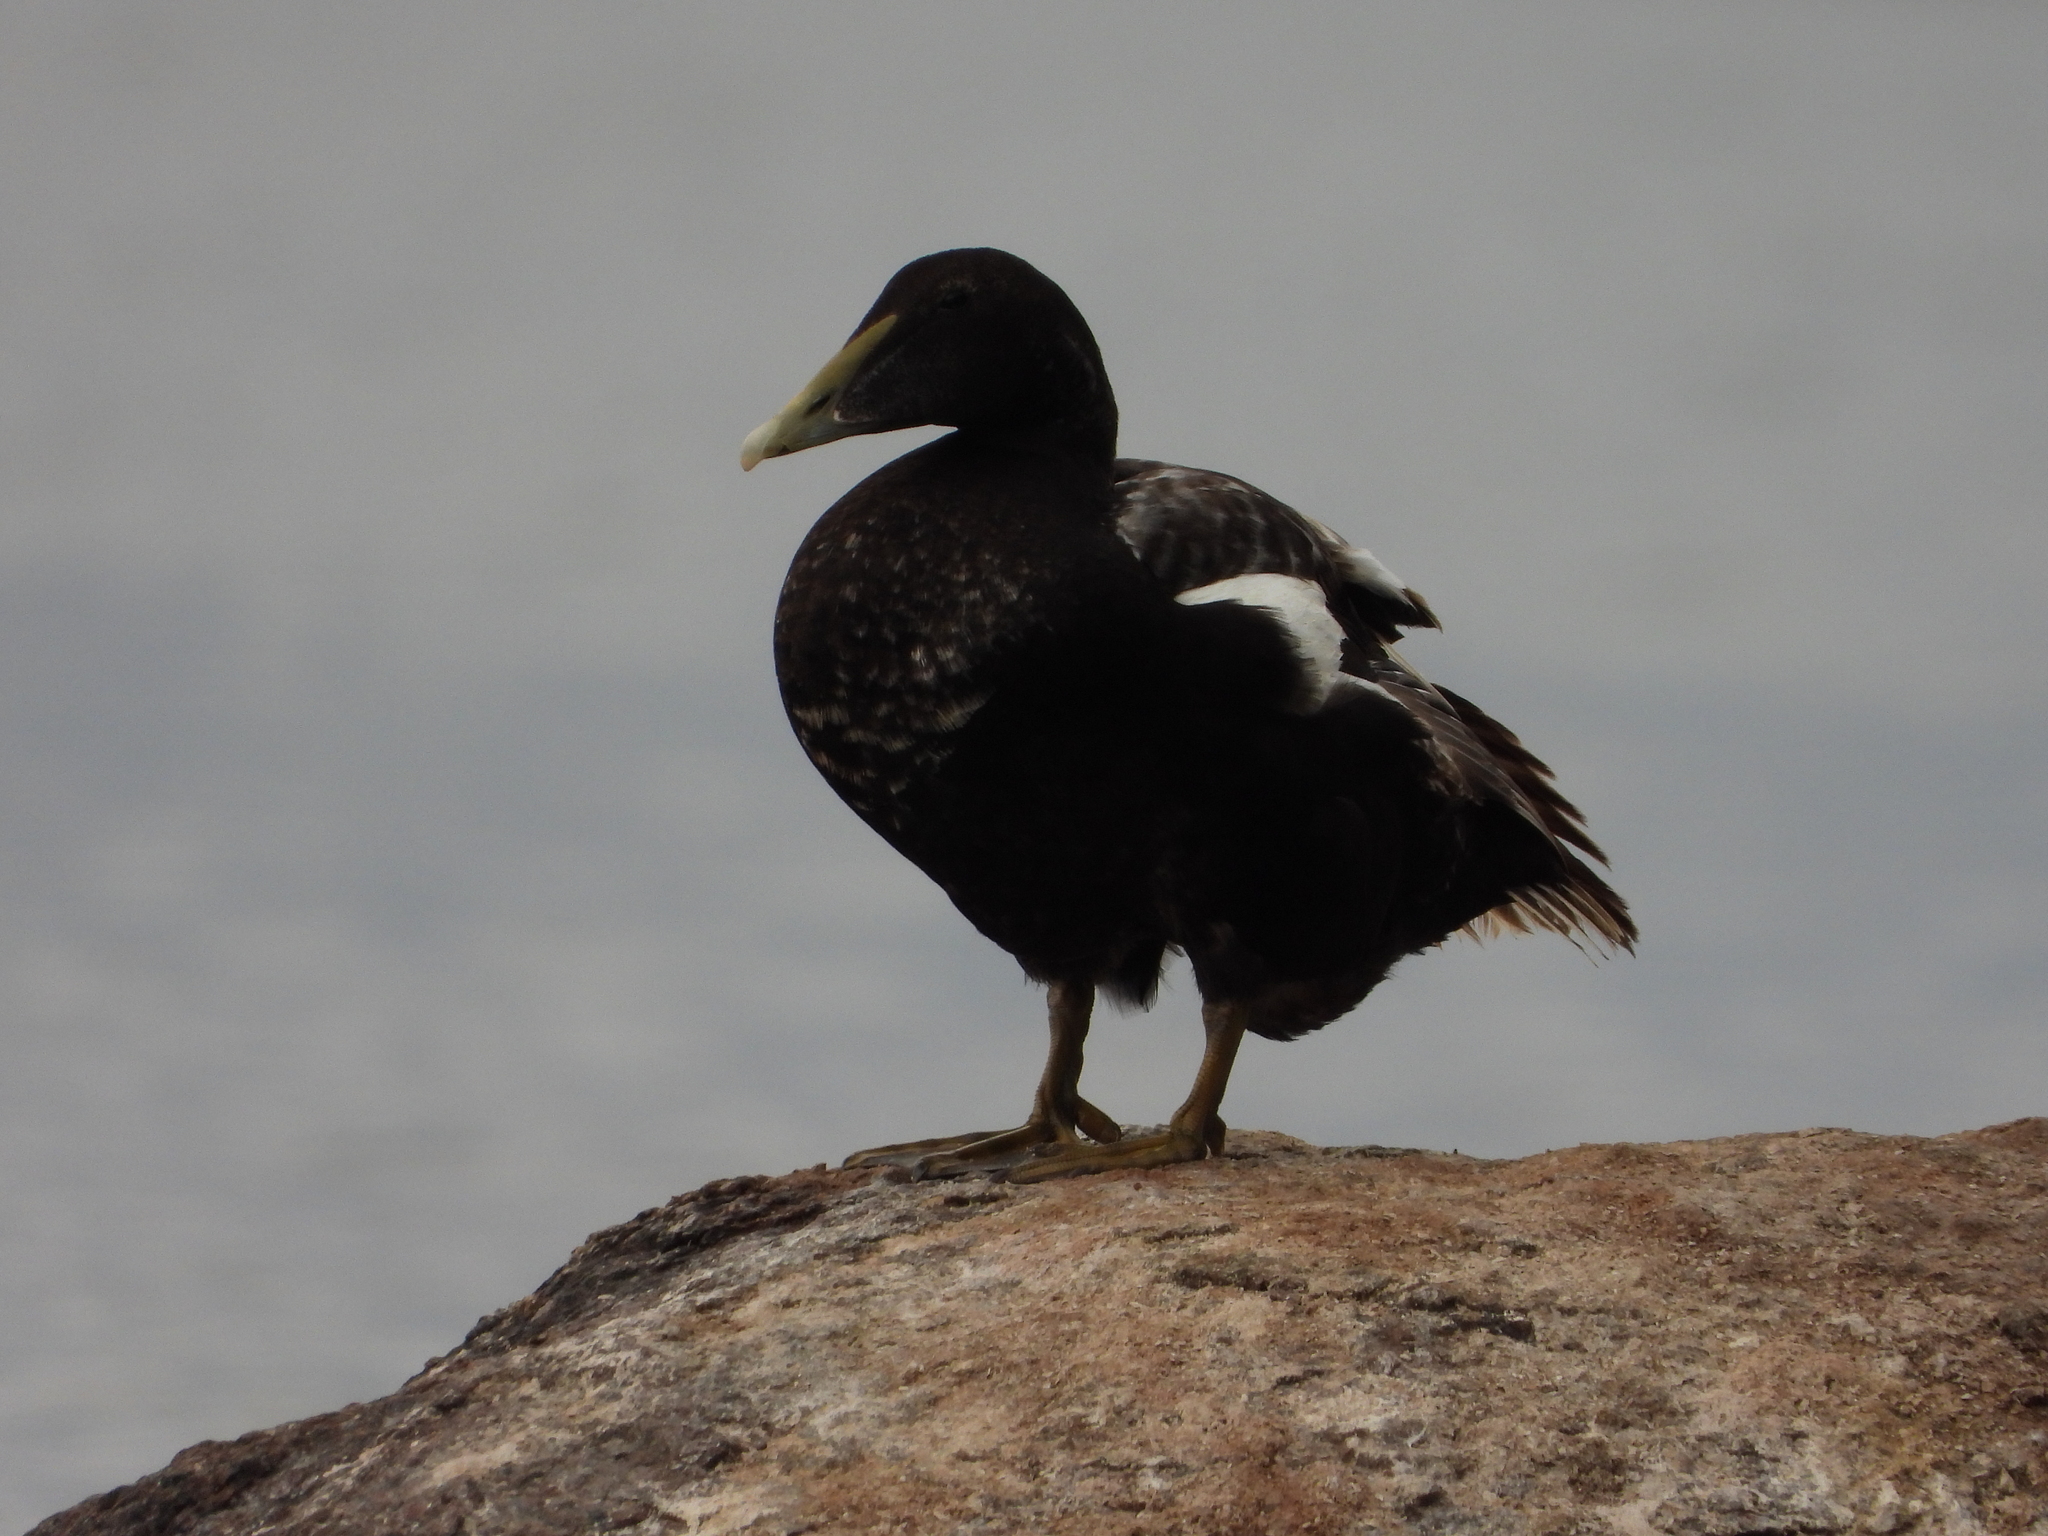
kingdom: Animalia
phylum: Chordata
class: Aves
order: Anseriformes
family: Anatidae
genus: Somateria
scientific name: Somateria mollissima
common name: Common eider
